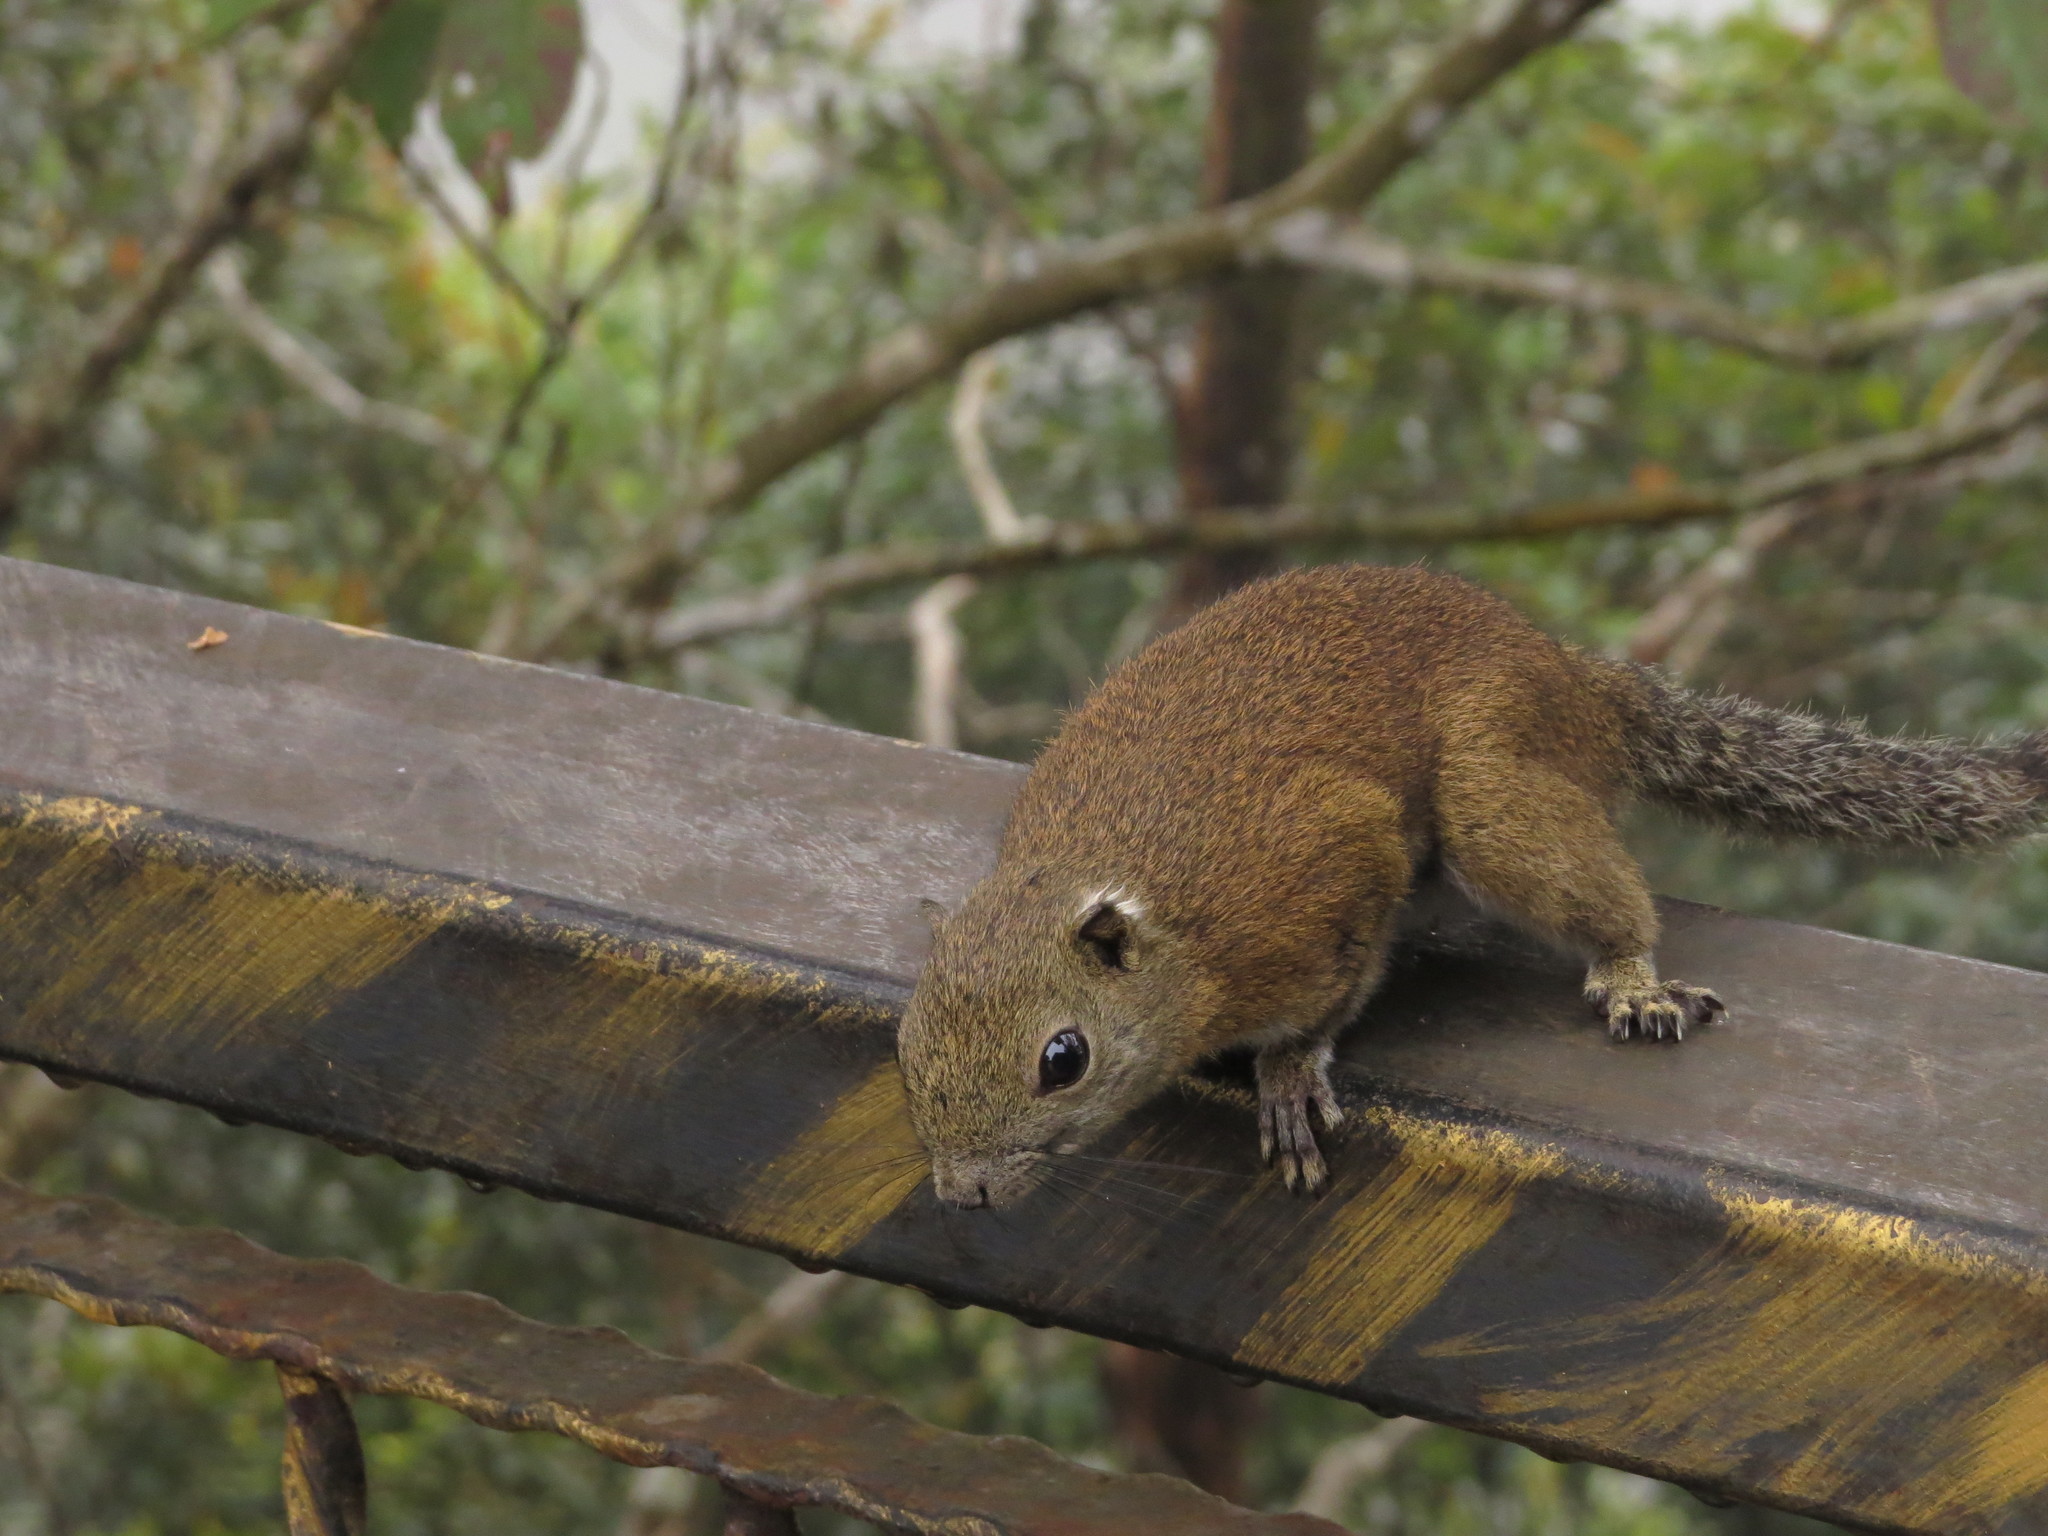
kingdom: Animalia
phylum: Chordata
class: Mammalia
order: Rodentia
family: Sciuridae
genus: Callosciurus
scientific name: Callosciurus orestes
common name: Borneo black-banded squirrel
